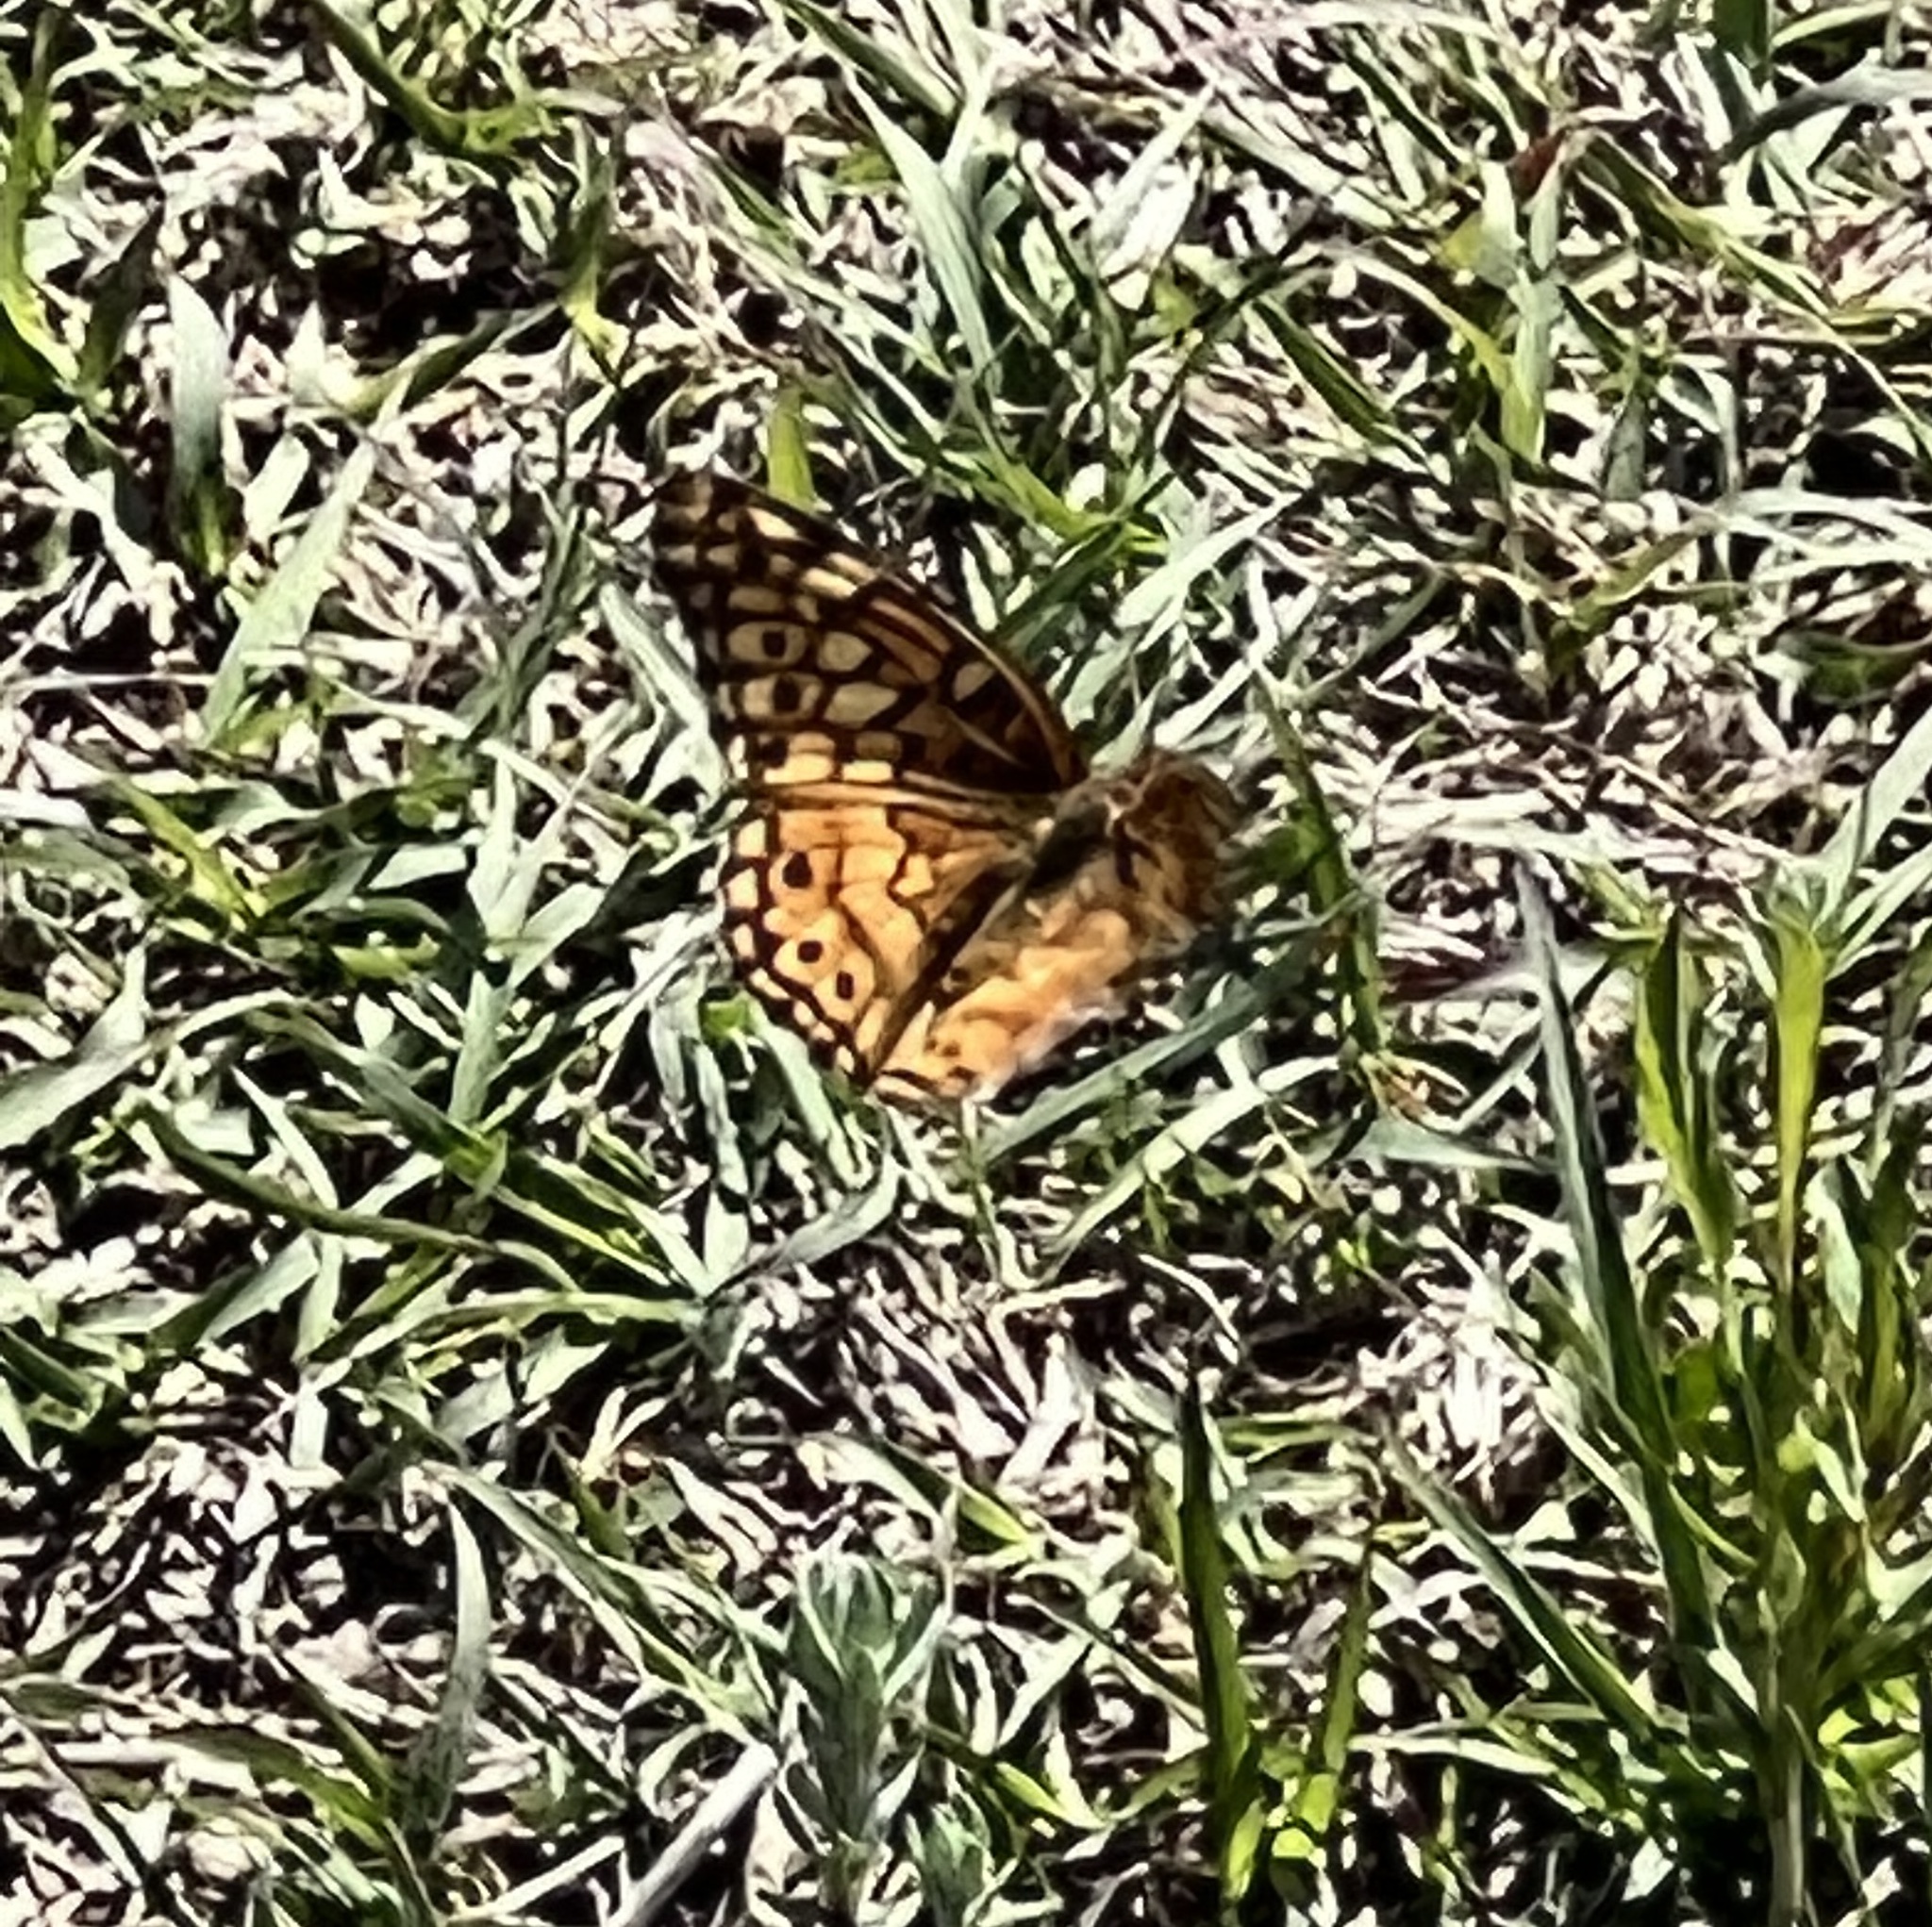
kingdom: Animalia
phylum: Arthropoda
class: Insecta
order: Lepidoptera
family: Nymphalidae
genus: Euptoieta
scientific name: Euptoieta claudia
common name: Variegated fritillary
